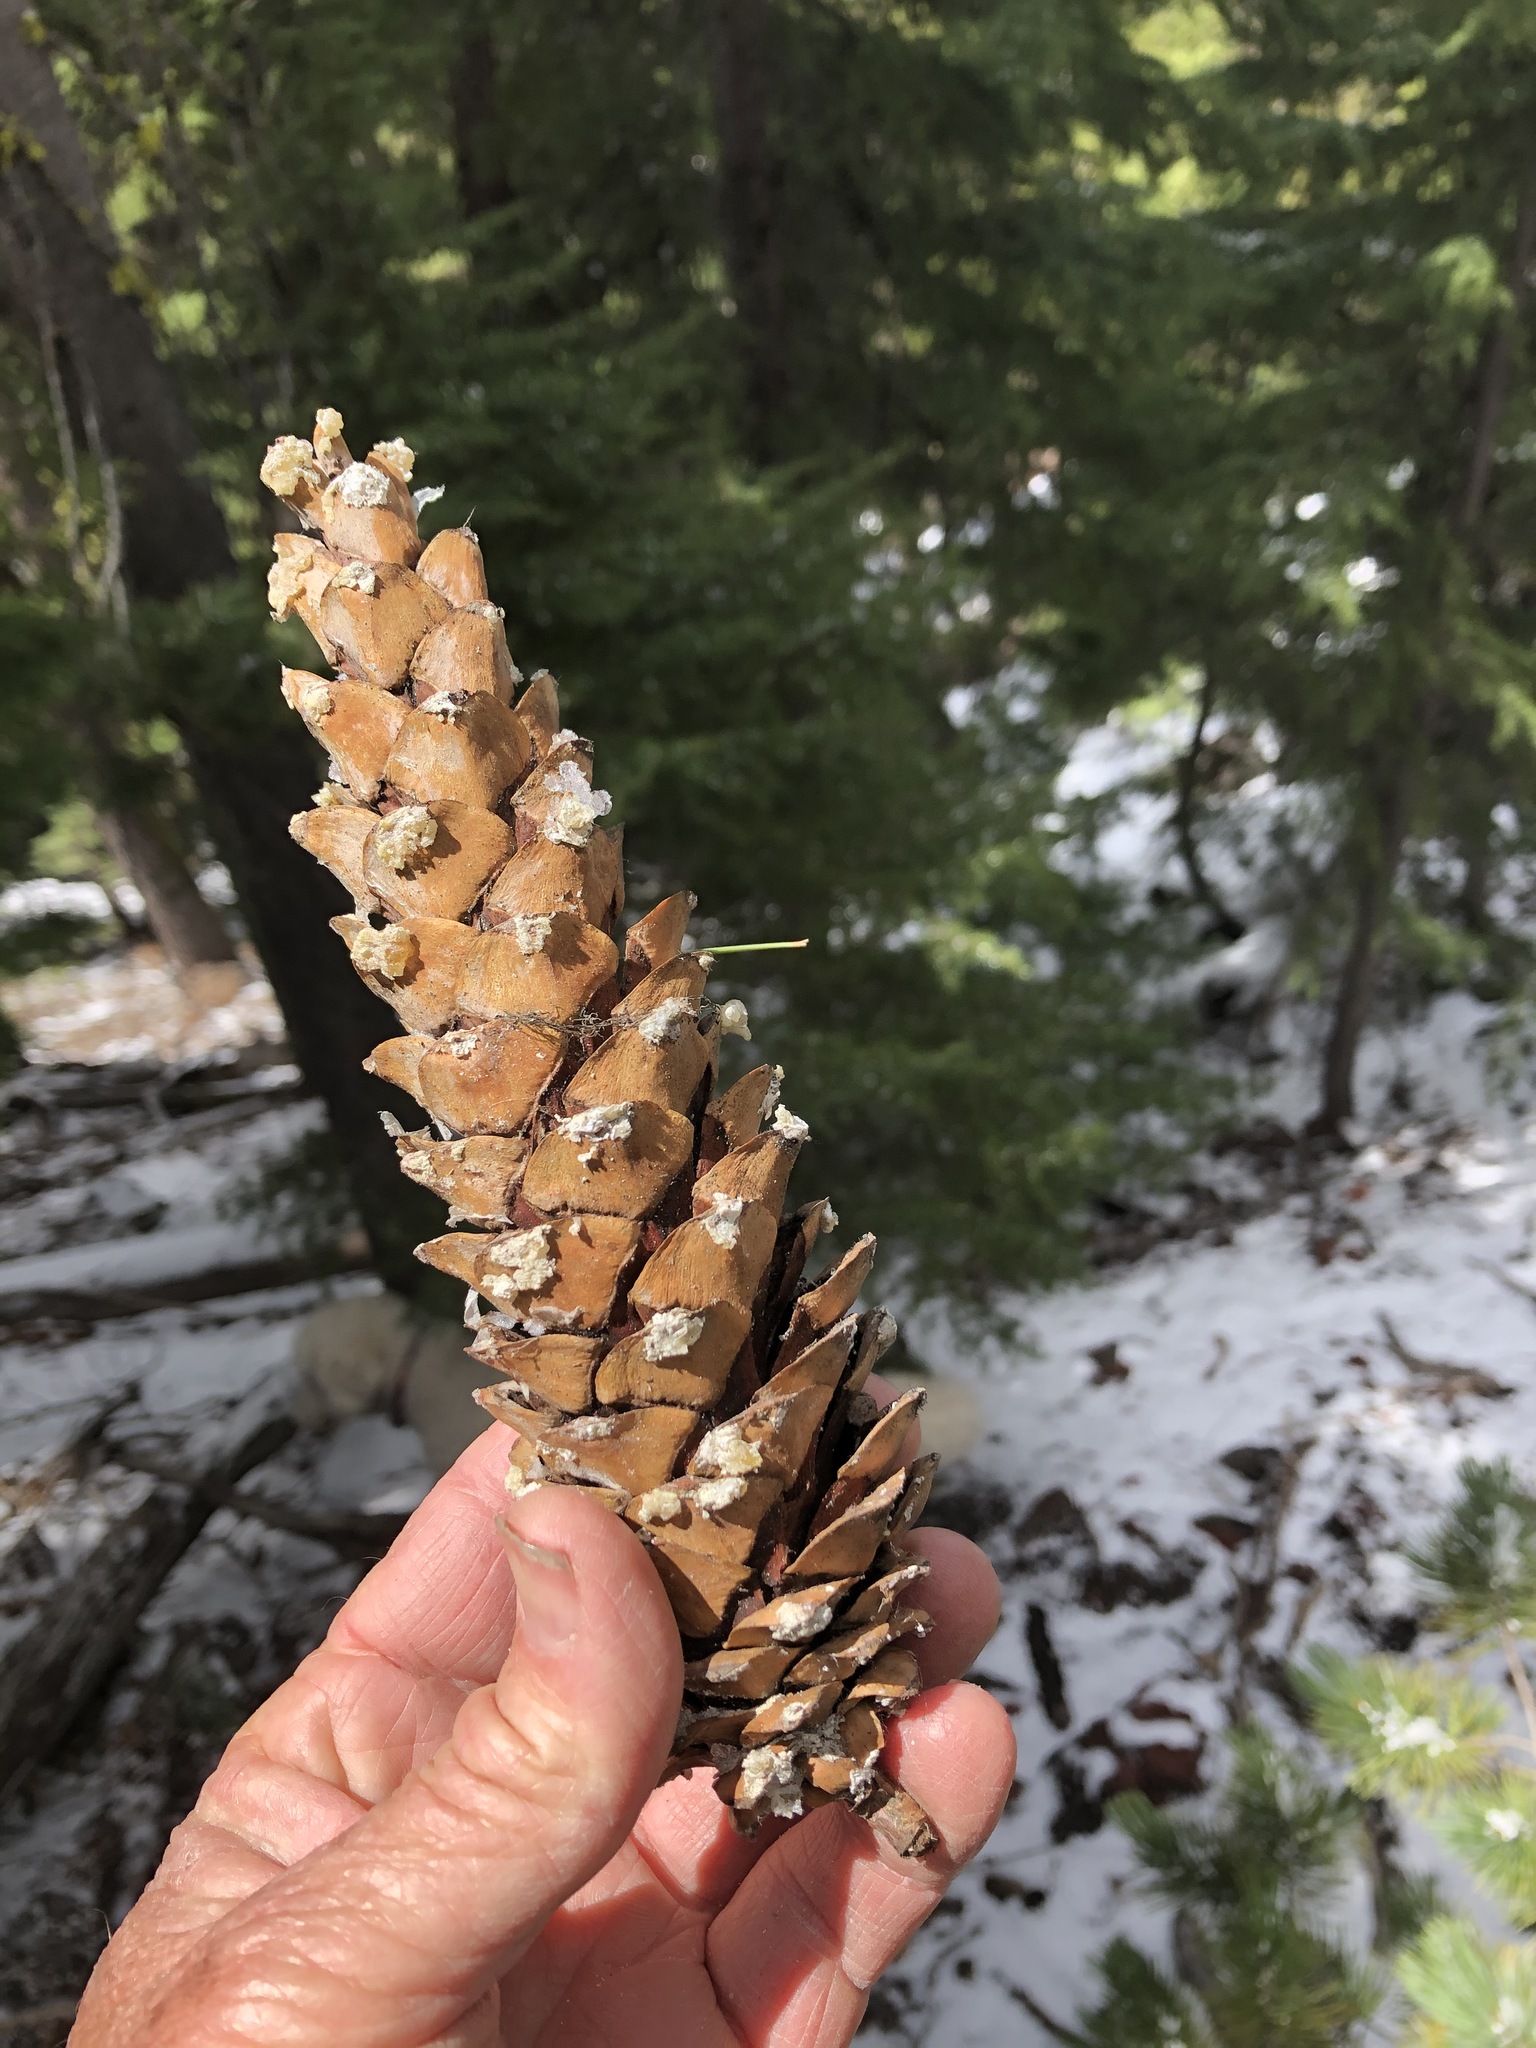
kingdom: Plantae
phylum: Tracheophyta
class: Pinopsida
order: Pinales
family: Pinaceae
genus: Pinus
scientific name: Pinus monticola
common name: Western white pine
